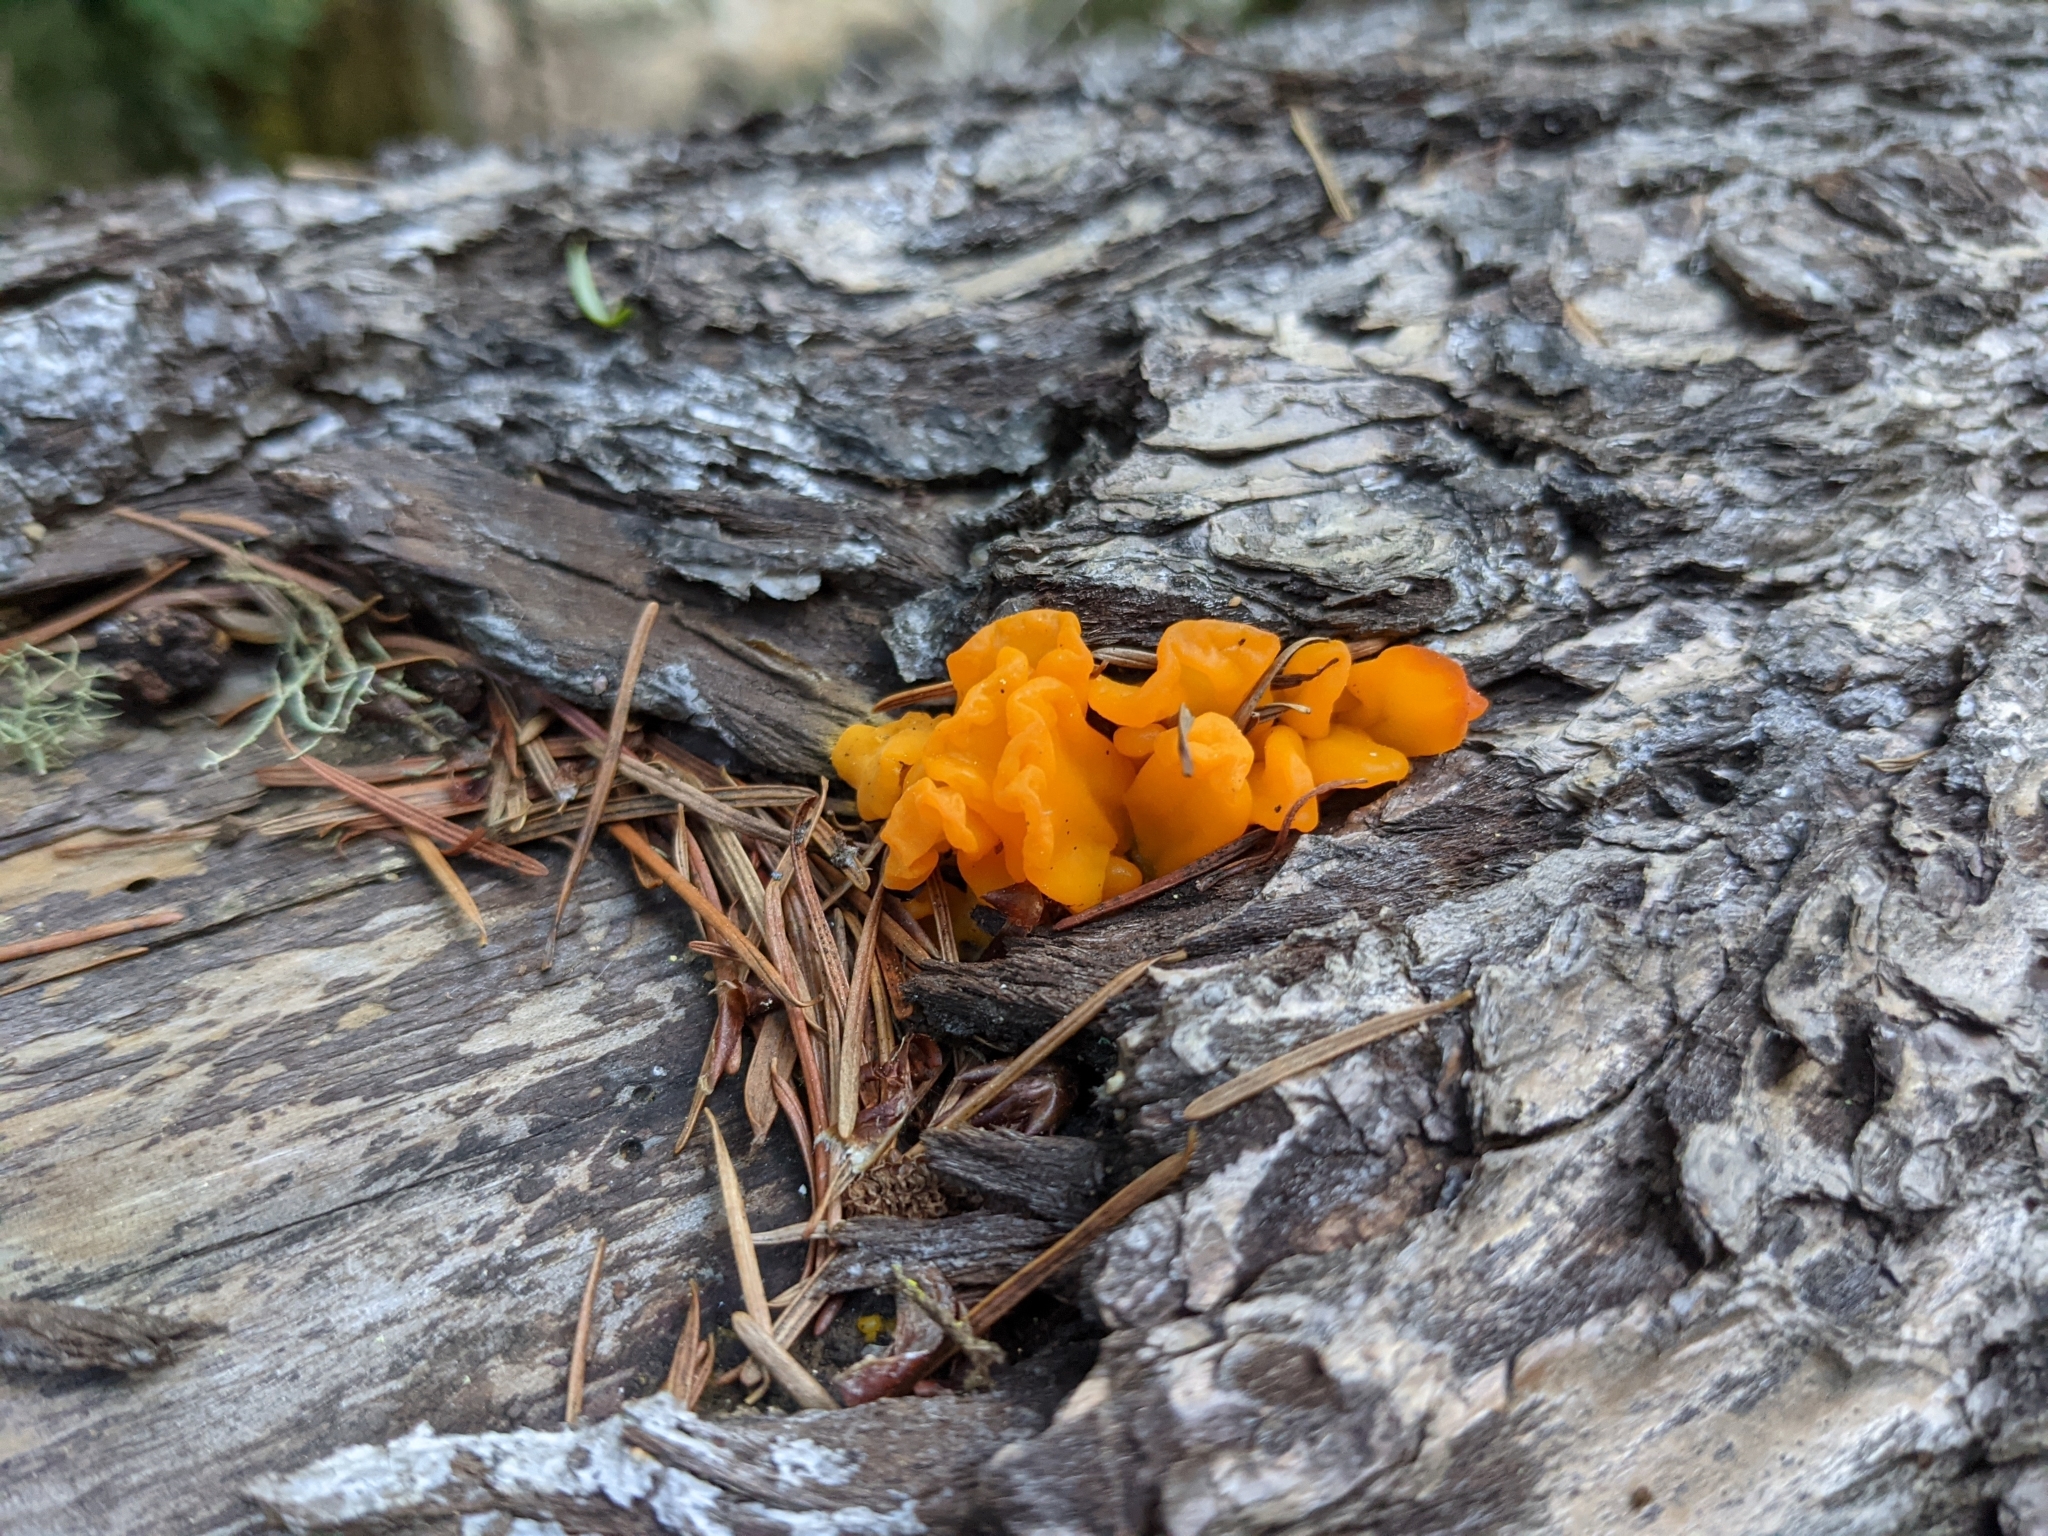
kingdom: Fungi
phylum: Basidiomycota
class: Dacrymycetes
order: Dacrymycetales
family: Dacrymycetaceae
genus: Dacrymyces
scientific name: Dacrymyces chrysospermus
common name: Orange jelly spot
